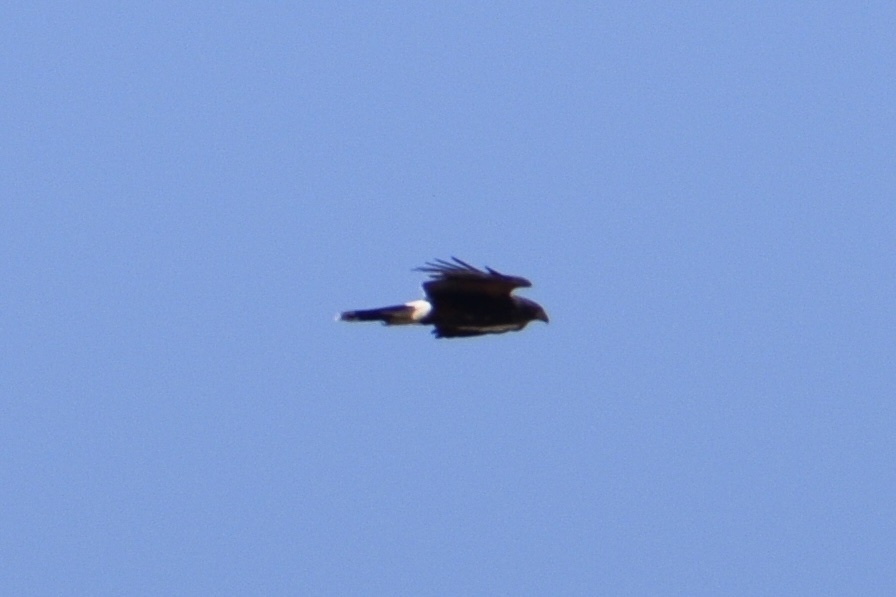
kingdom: Animalia
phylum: Chordata
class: Aves
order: Accipitriformes
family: Accipitridae
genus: Parabuteo
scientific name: Parabuteo unicinctus
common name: Harris's hawk
